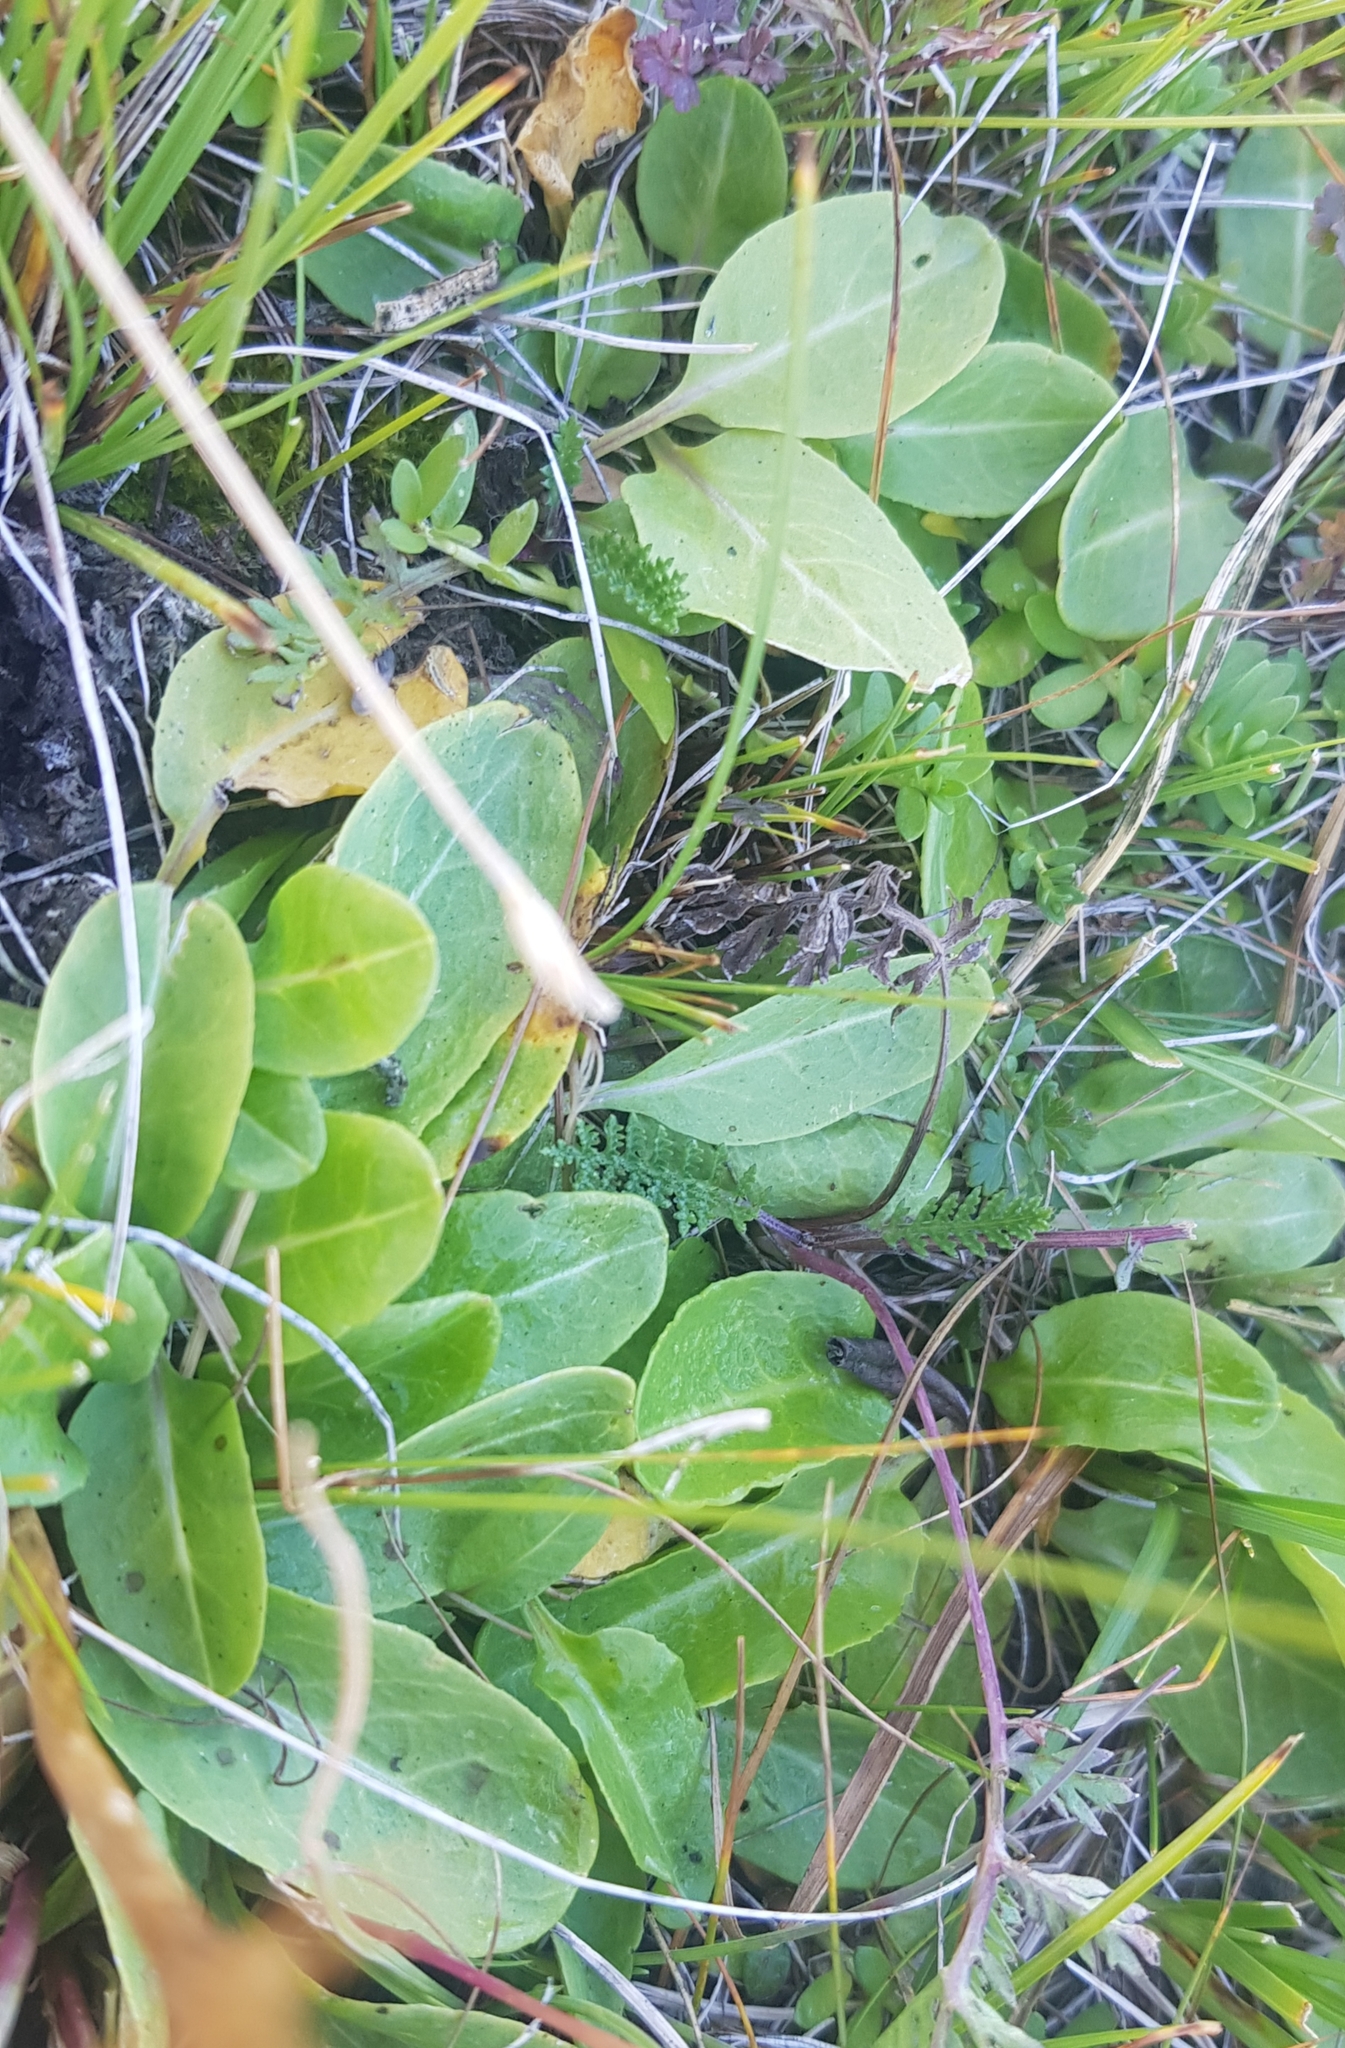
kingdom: Plantae
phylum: Tracheophyta
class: Magnoliopsida
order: Saxifragales
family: Saxifragaceae
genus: Micranthes
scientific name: Micranthes integrifolia
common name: Wholeleaf saxifrage
